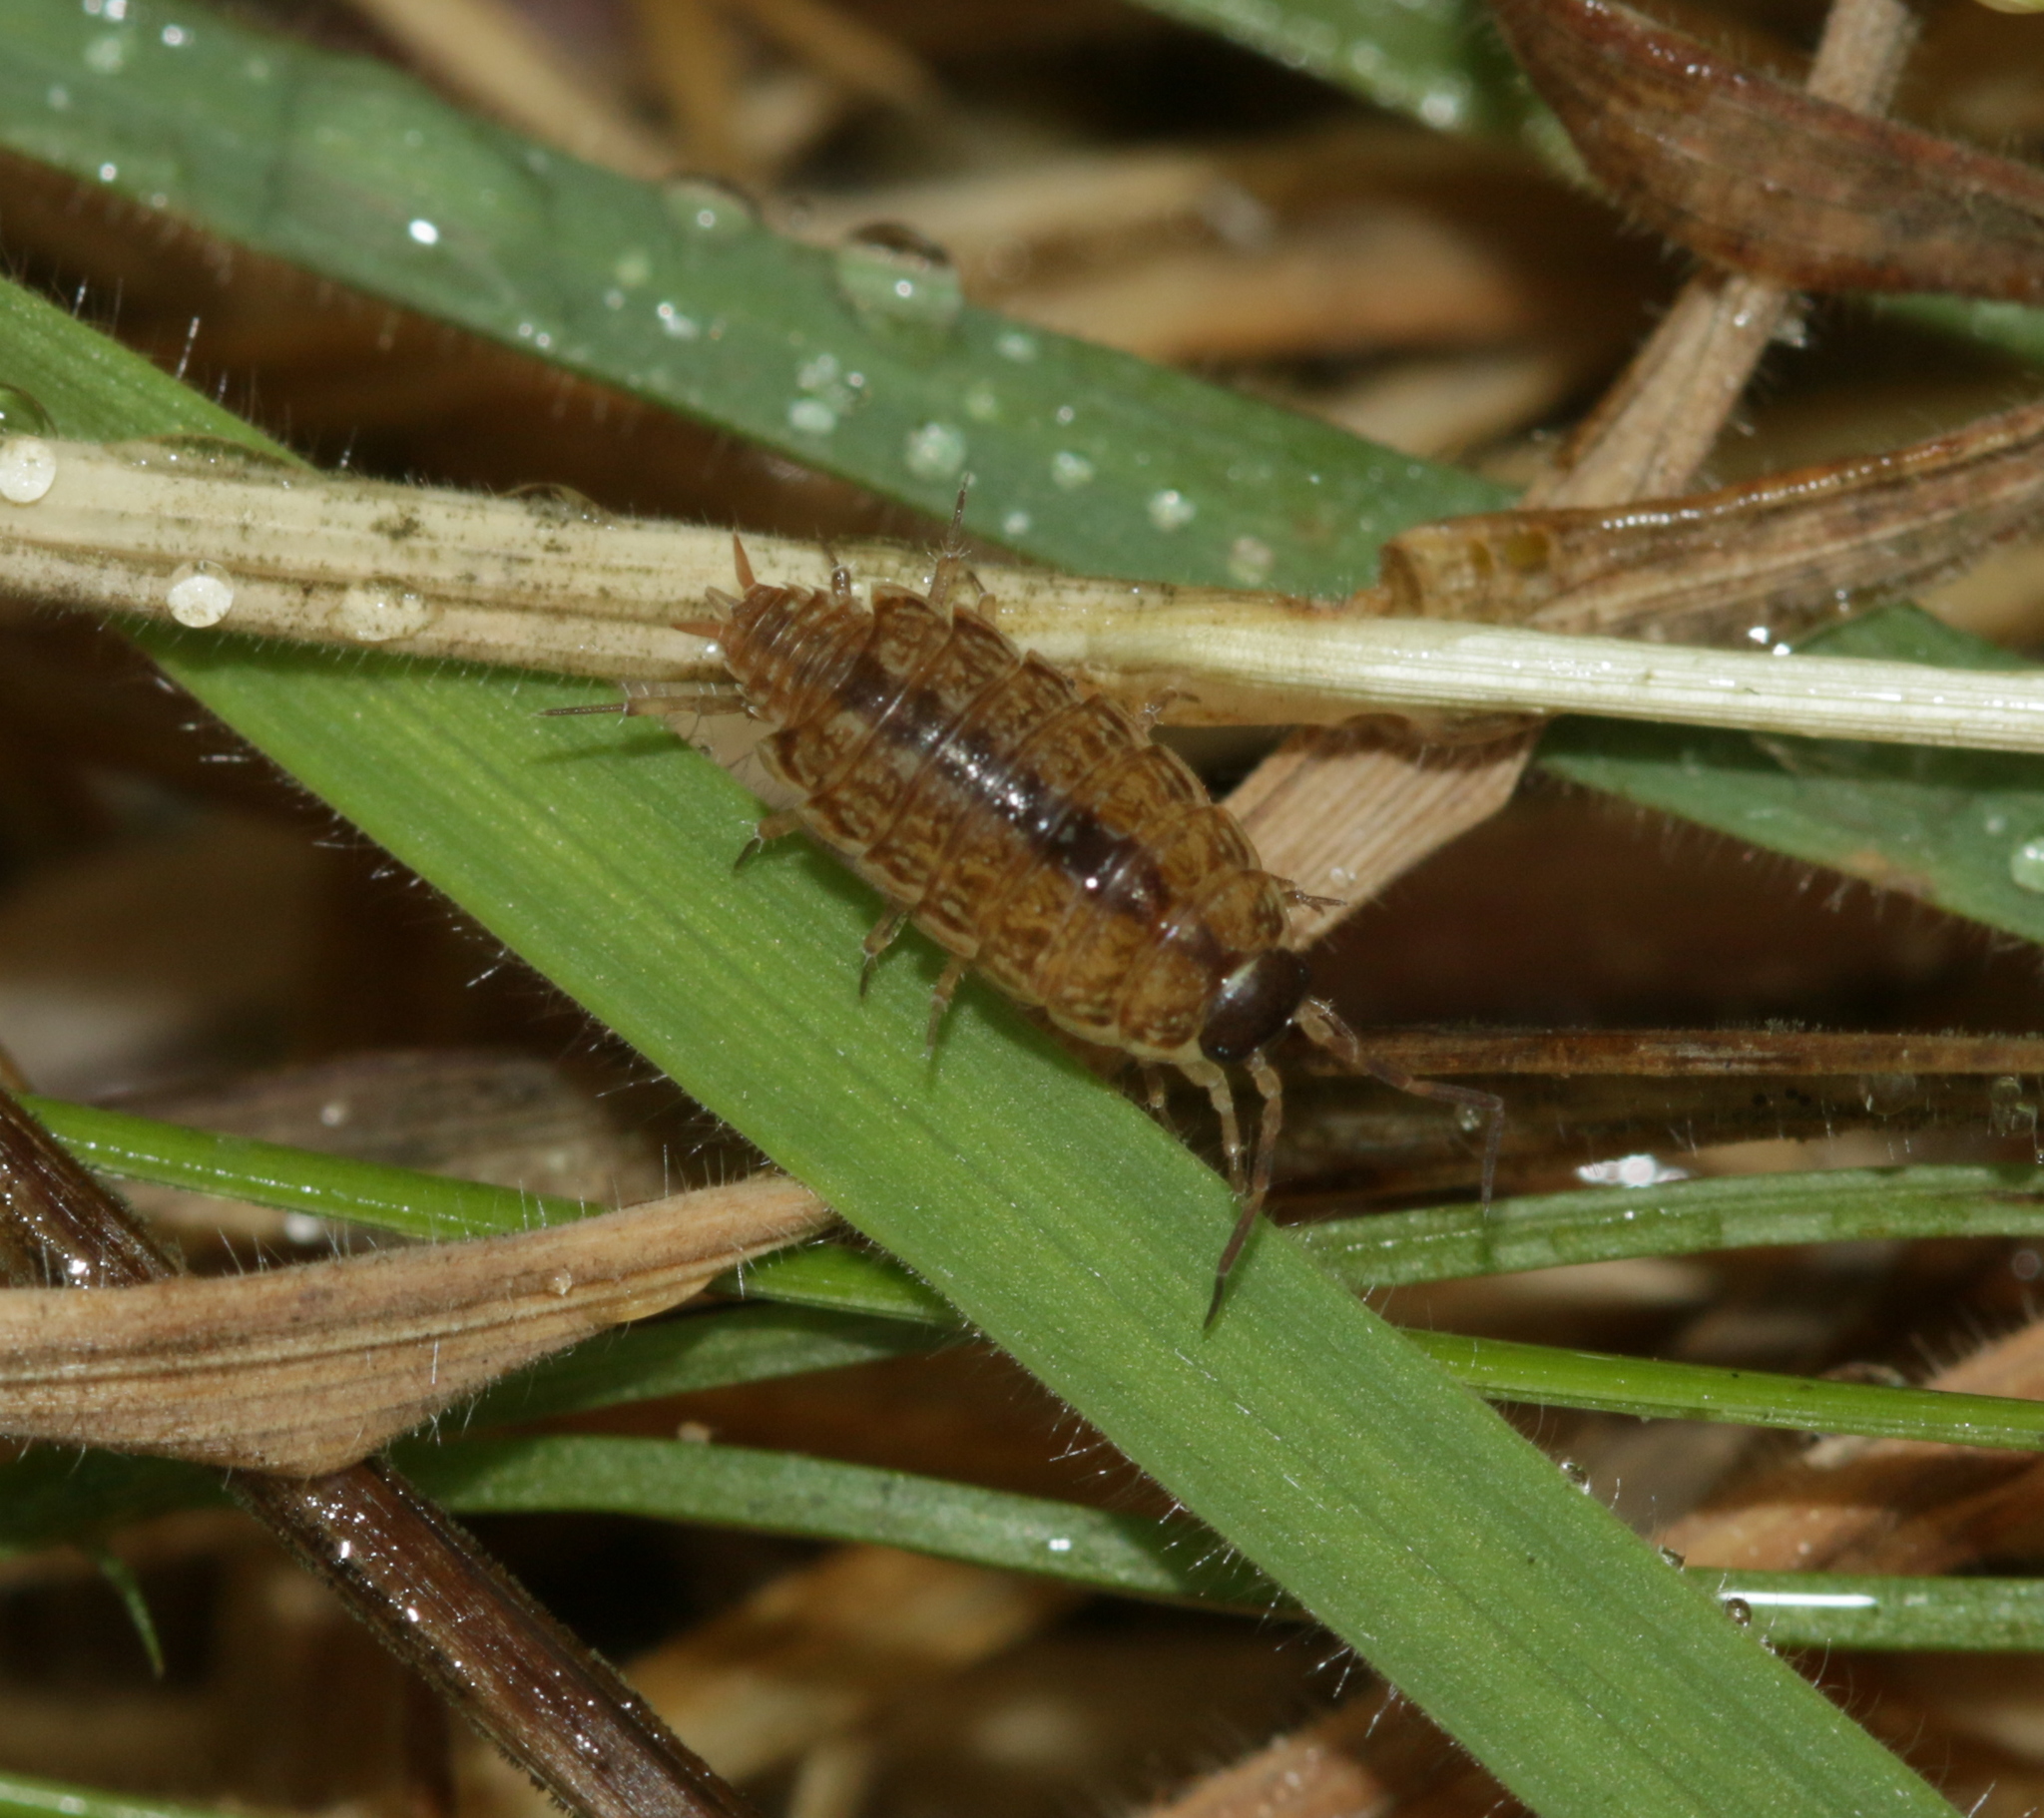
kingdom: Animalia
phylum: Arthropoda
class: Malacostraca
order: Isopoda
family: Philosciidae
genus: Philoscia
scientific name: Philoscia muscorum
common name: Common striped woodlouse
